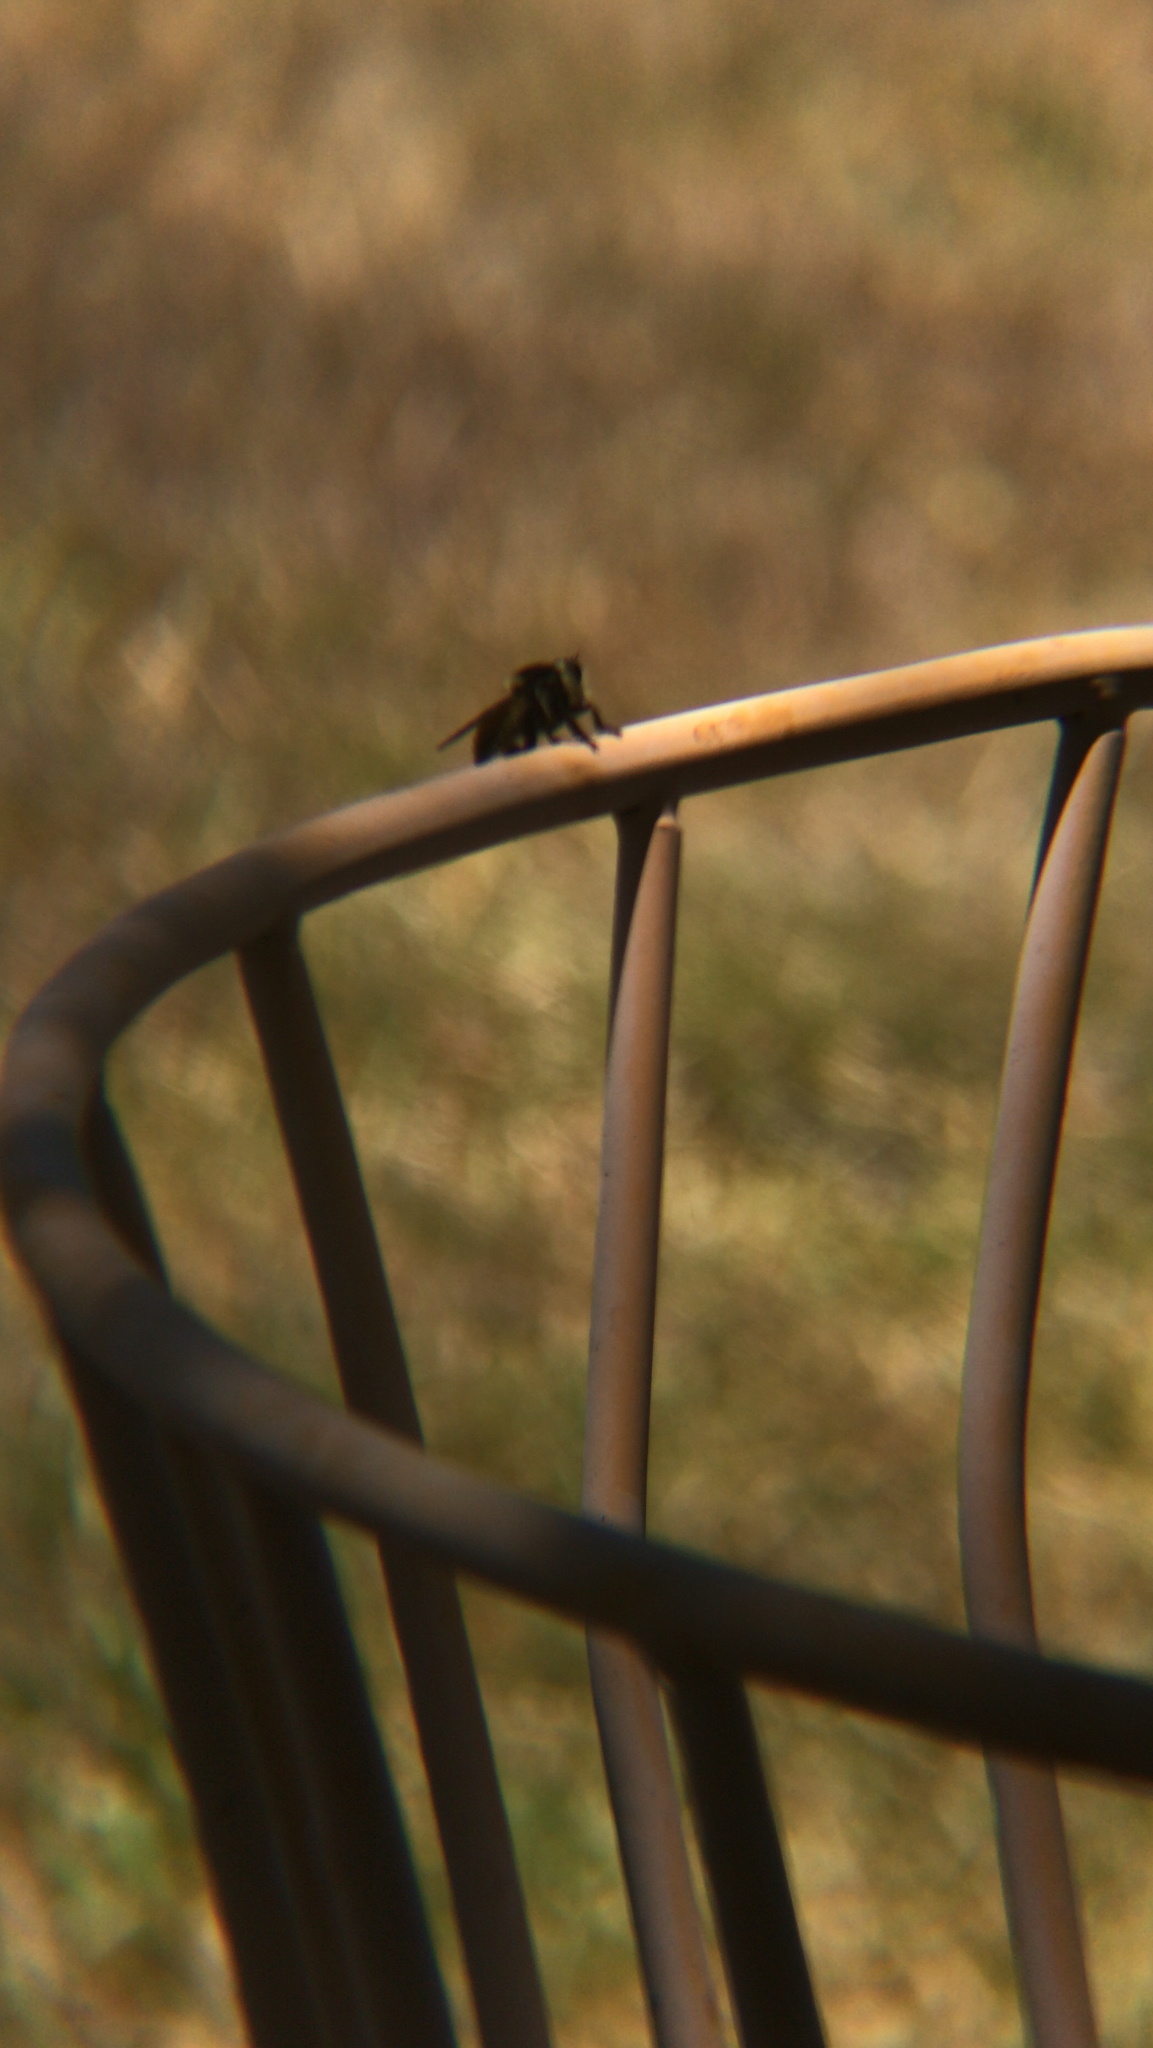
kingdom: Animalia
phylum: Arthropoda
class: Insecta
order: Diptera
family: Asilidae
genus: Mallophora
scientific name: Mallophora fautrix
